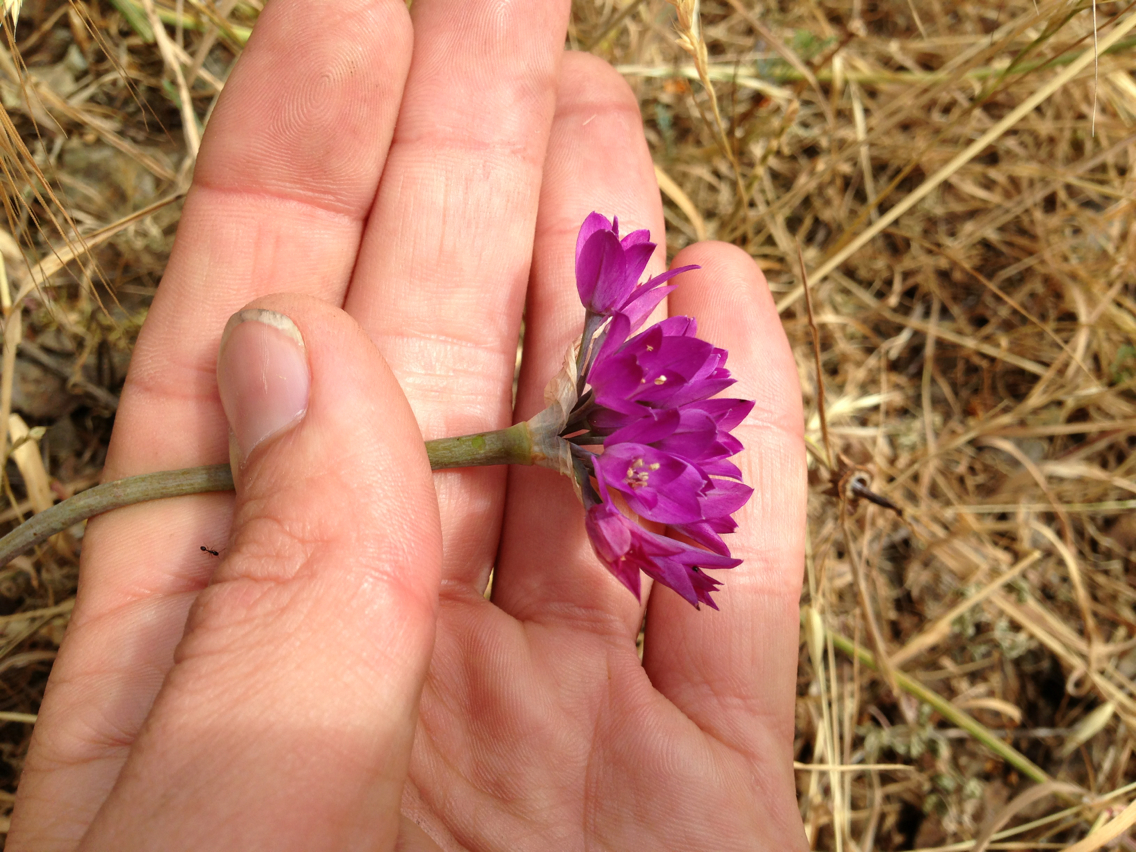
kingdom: Plantae
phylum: Tracheophyta
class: Liliopsida
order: Asparagales
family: Amaryllidaceae
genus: Allium
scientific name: Allium dichlamydeum
